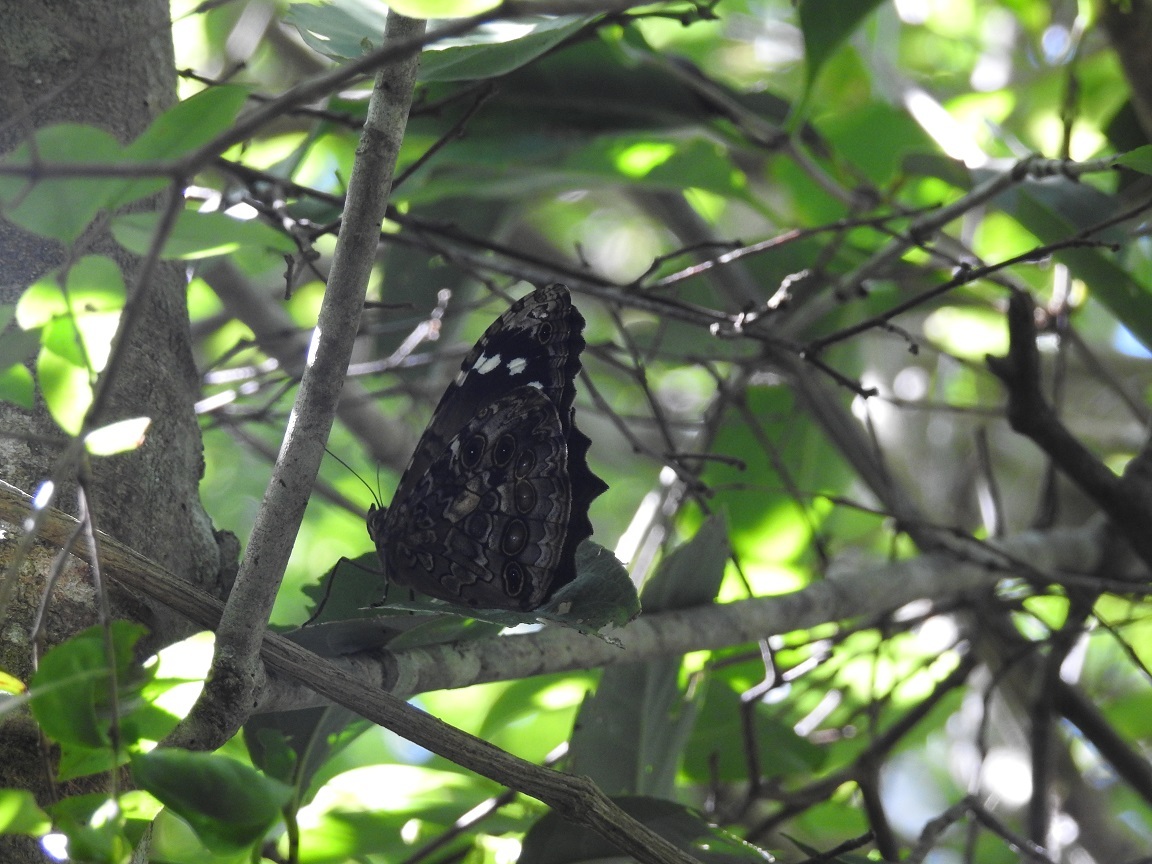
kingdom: Animalia
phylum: Arthropoda
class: Insecta
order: Lepidoptera
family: Nymphalidae
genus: Manataria
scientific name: Manataria maculata
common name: White-spotted satyr
